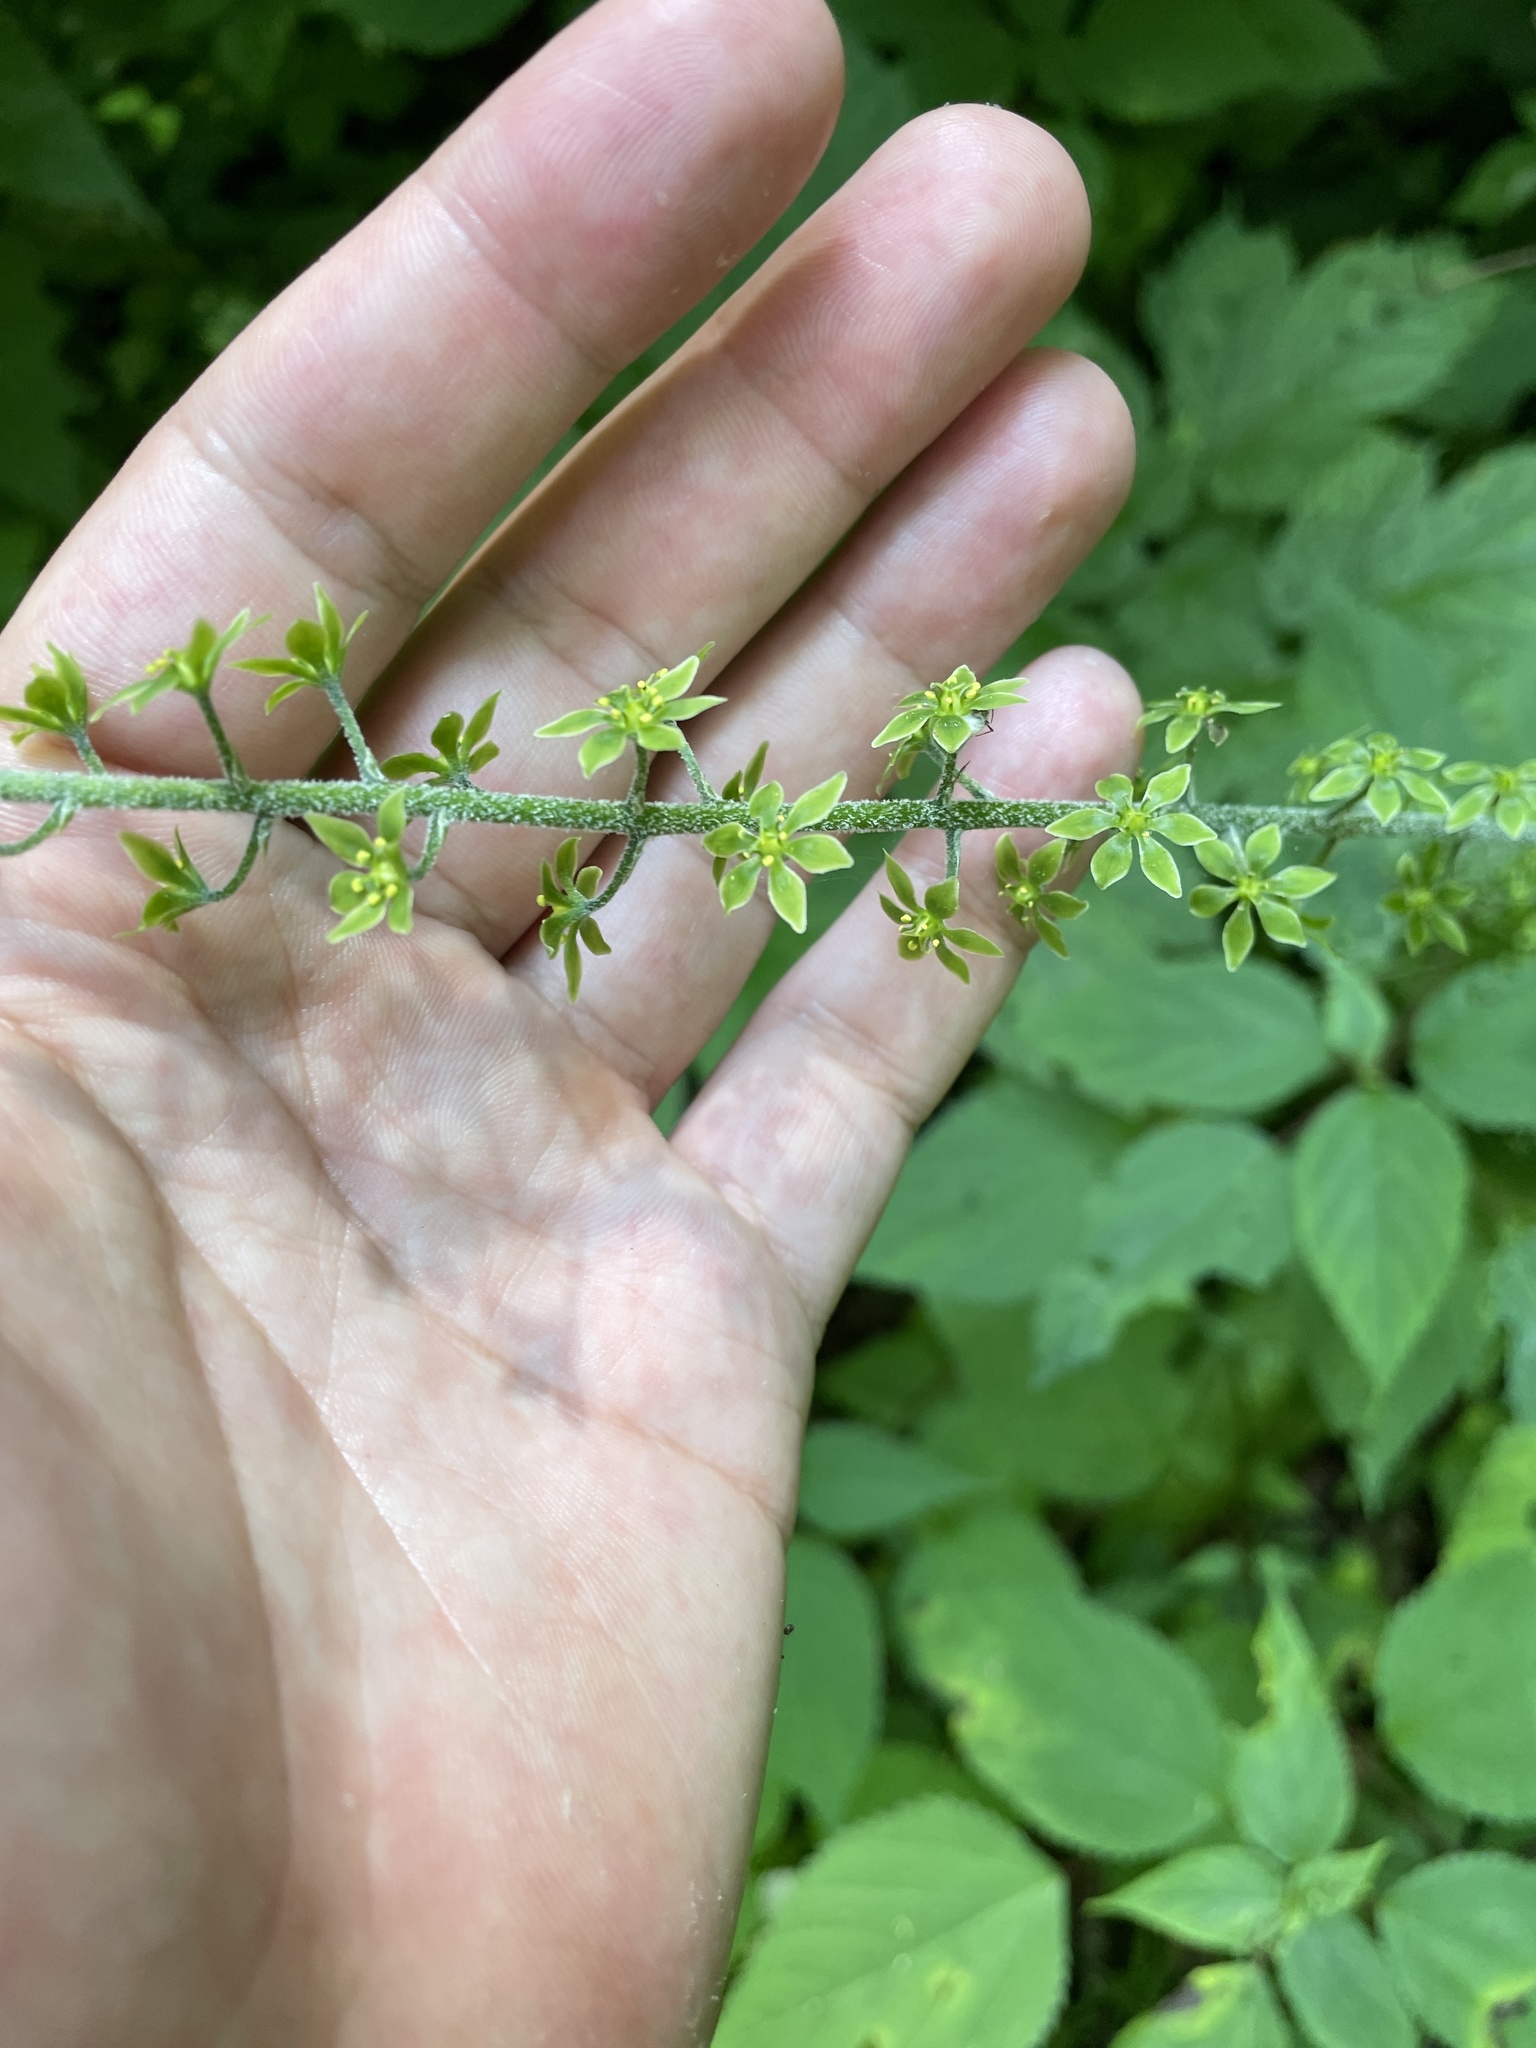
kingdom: Plantae
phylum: Tracheophyta
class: Liliopsida
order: Liliales
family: Melanthiaceae
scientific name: Melanthiaceae
